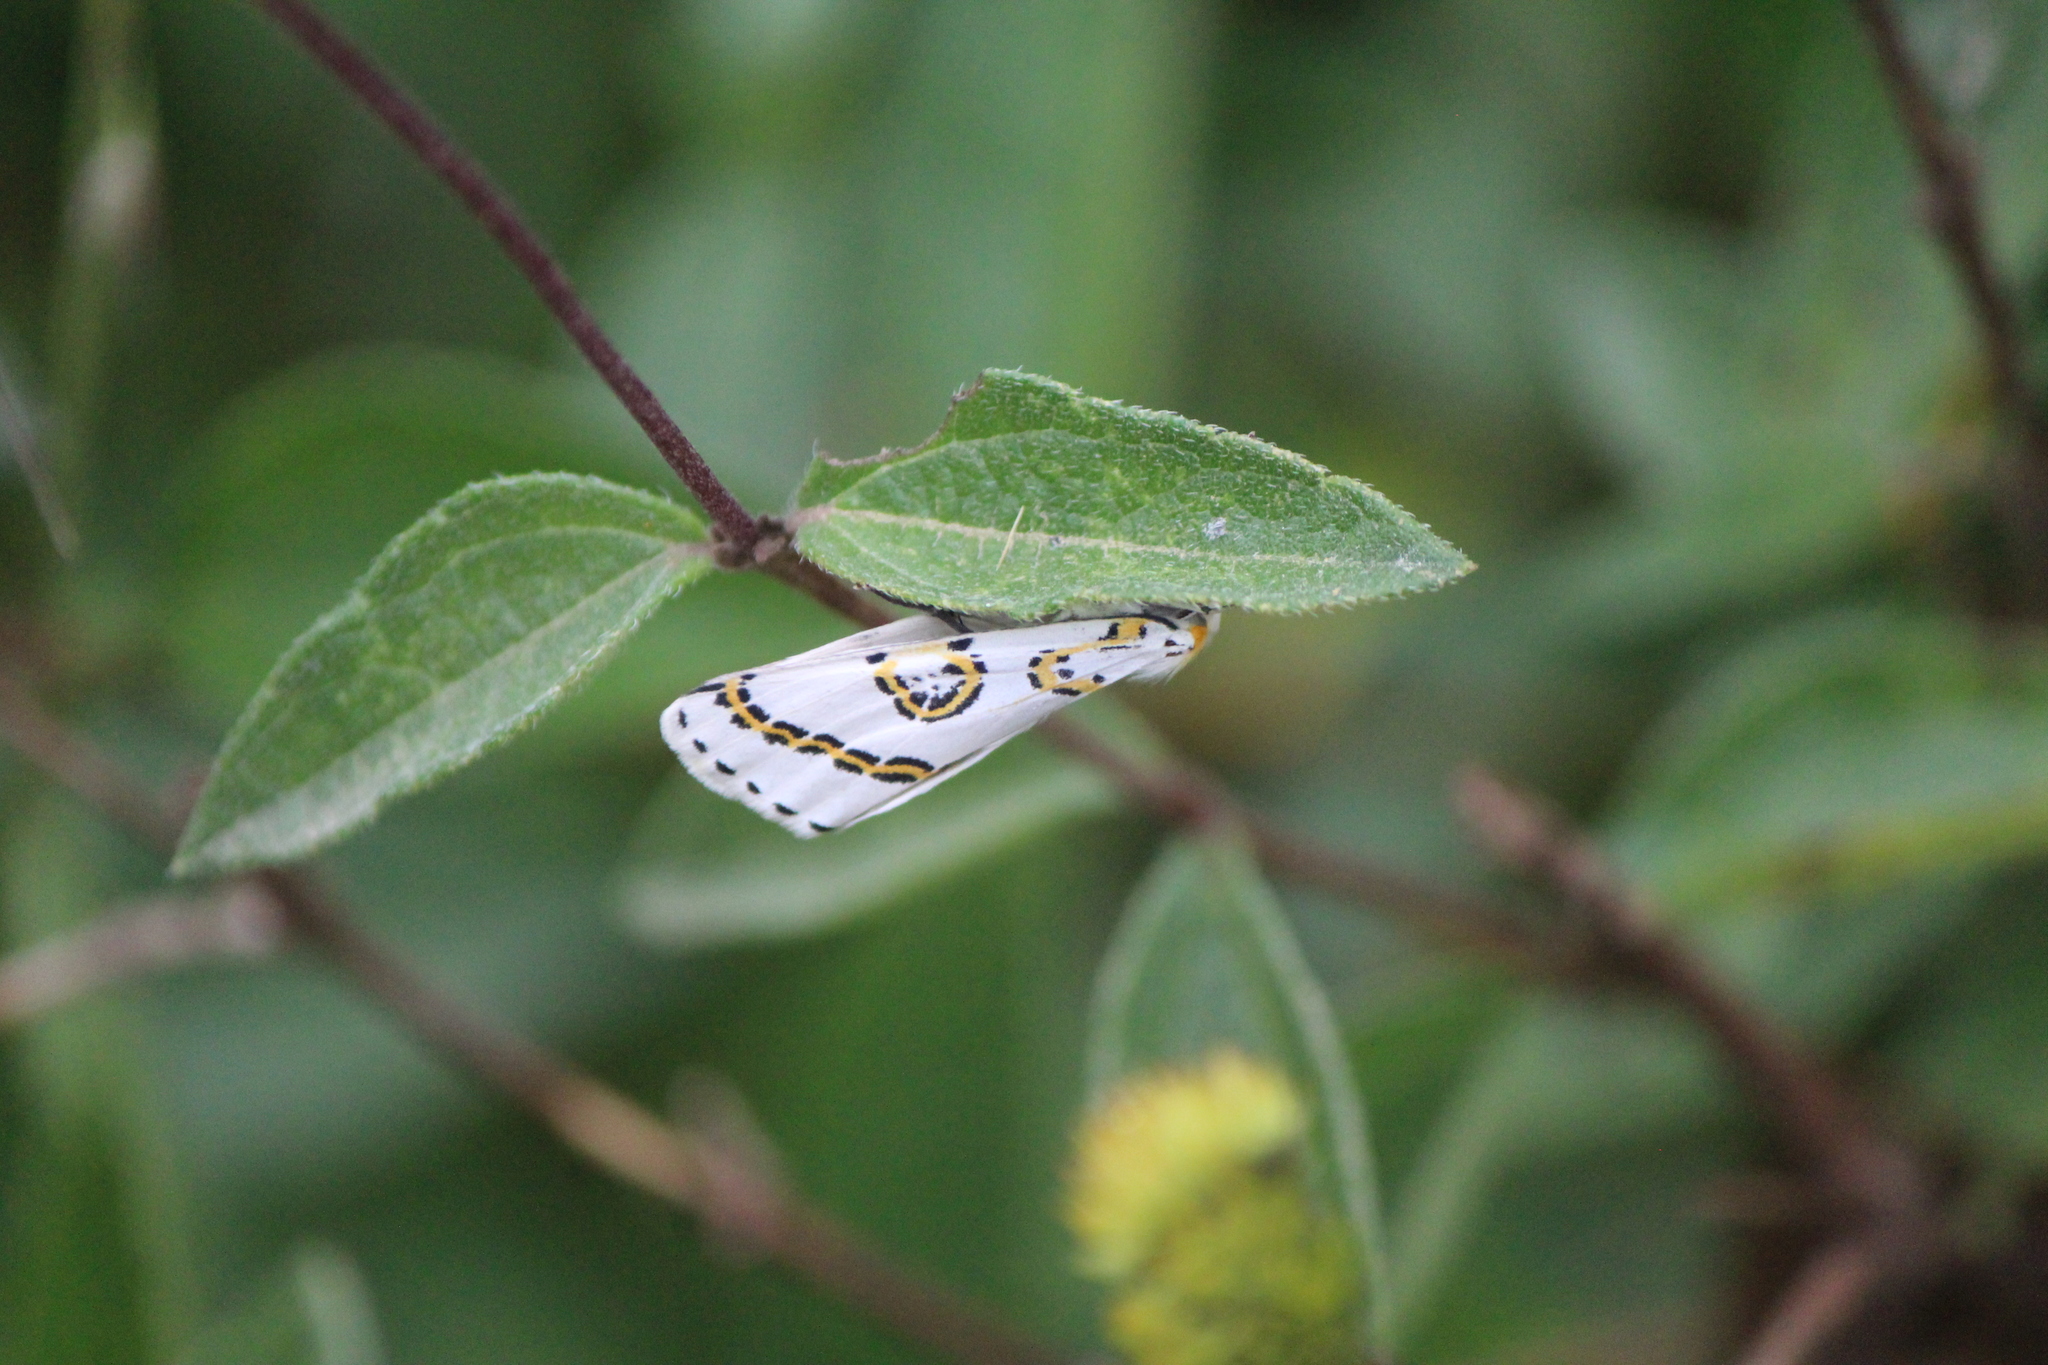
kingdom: Animalia
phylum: Arthropoda
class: Insecta
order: Lepidoptera
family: Geometridae
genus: Philtraea
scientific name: Philtraea mexicana
